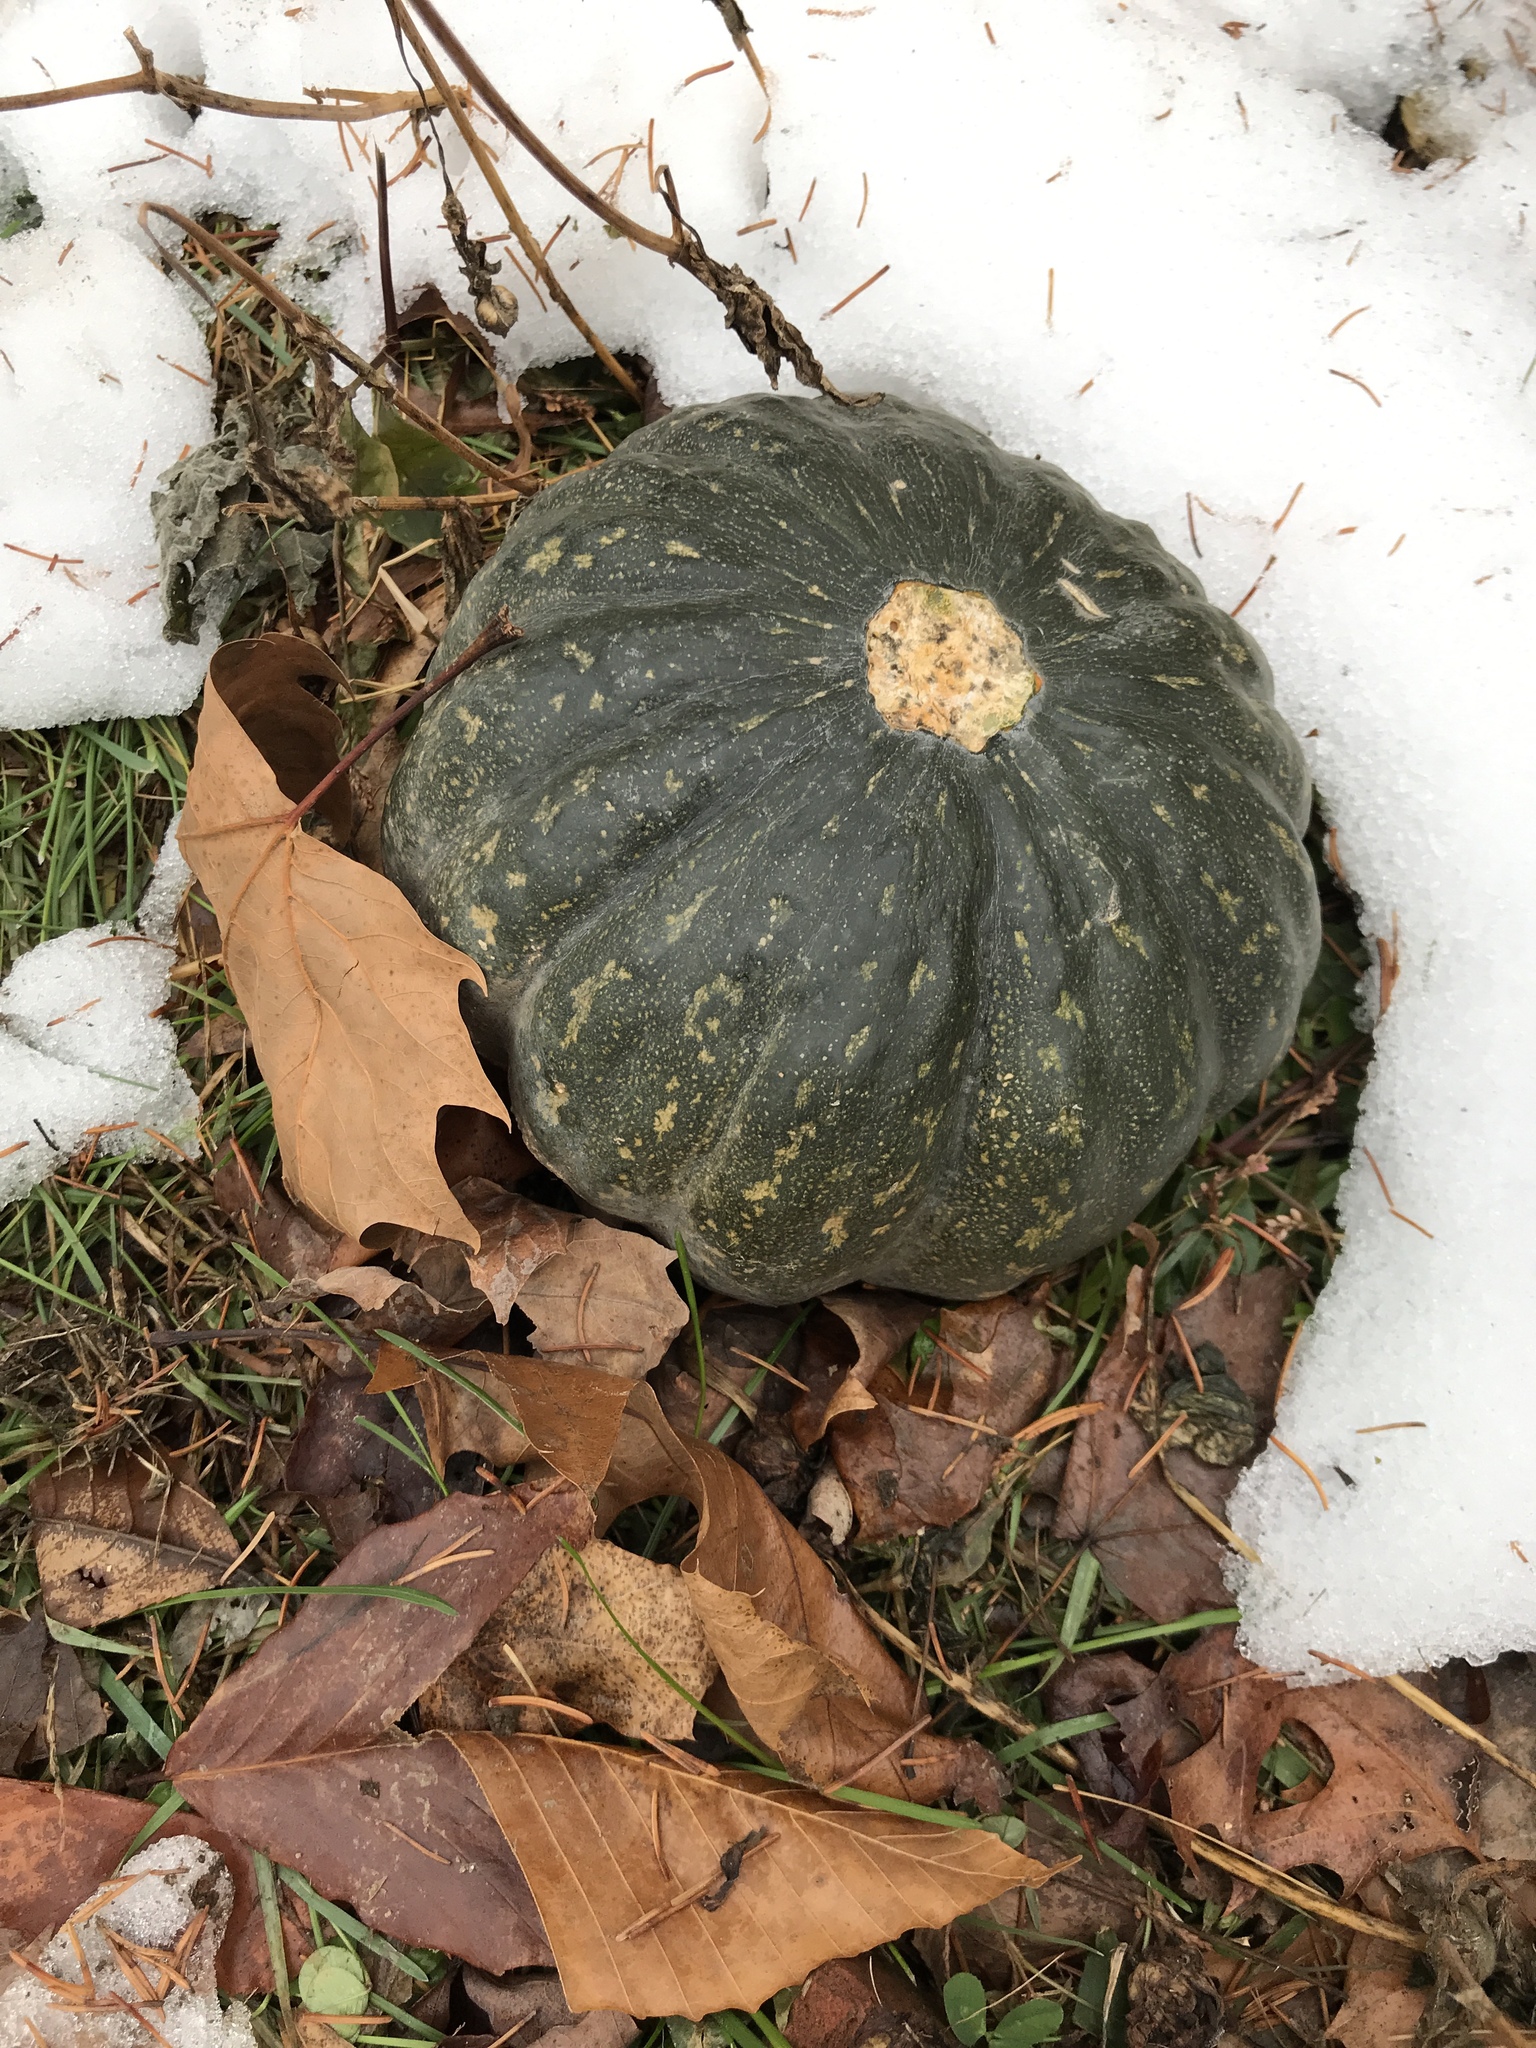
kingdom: Plantae
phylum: Tracheophyta
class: Magnoliopsida
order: Cucurbitales
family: Cucurbitaceae
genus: Cucurbita
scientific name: Cucurbita maxima
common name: Pumpkin
